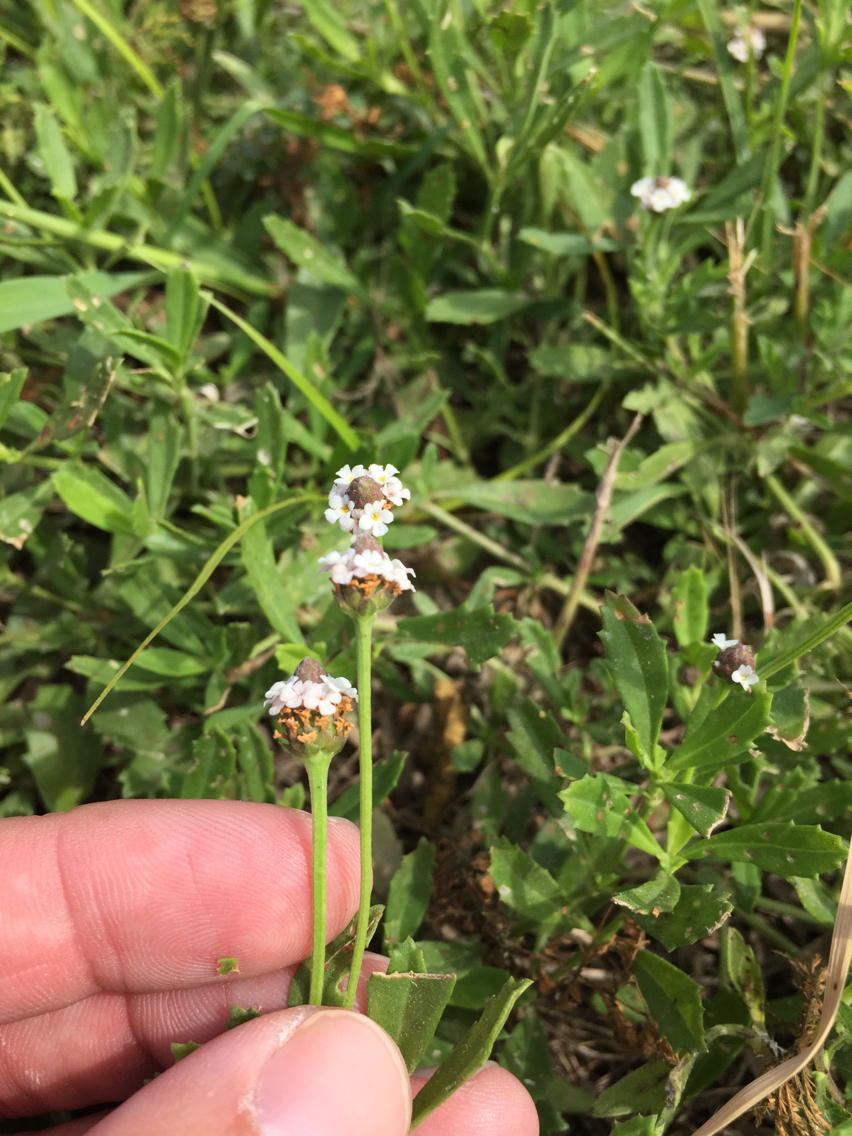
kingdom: Plantae
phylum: Tracheophyta
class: Magnoliopsida
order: Lamiales
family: Verbenaceae
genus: Phyla
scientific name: Phyla nodiflora
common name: Frogfruit
